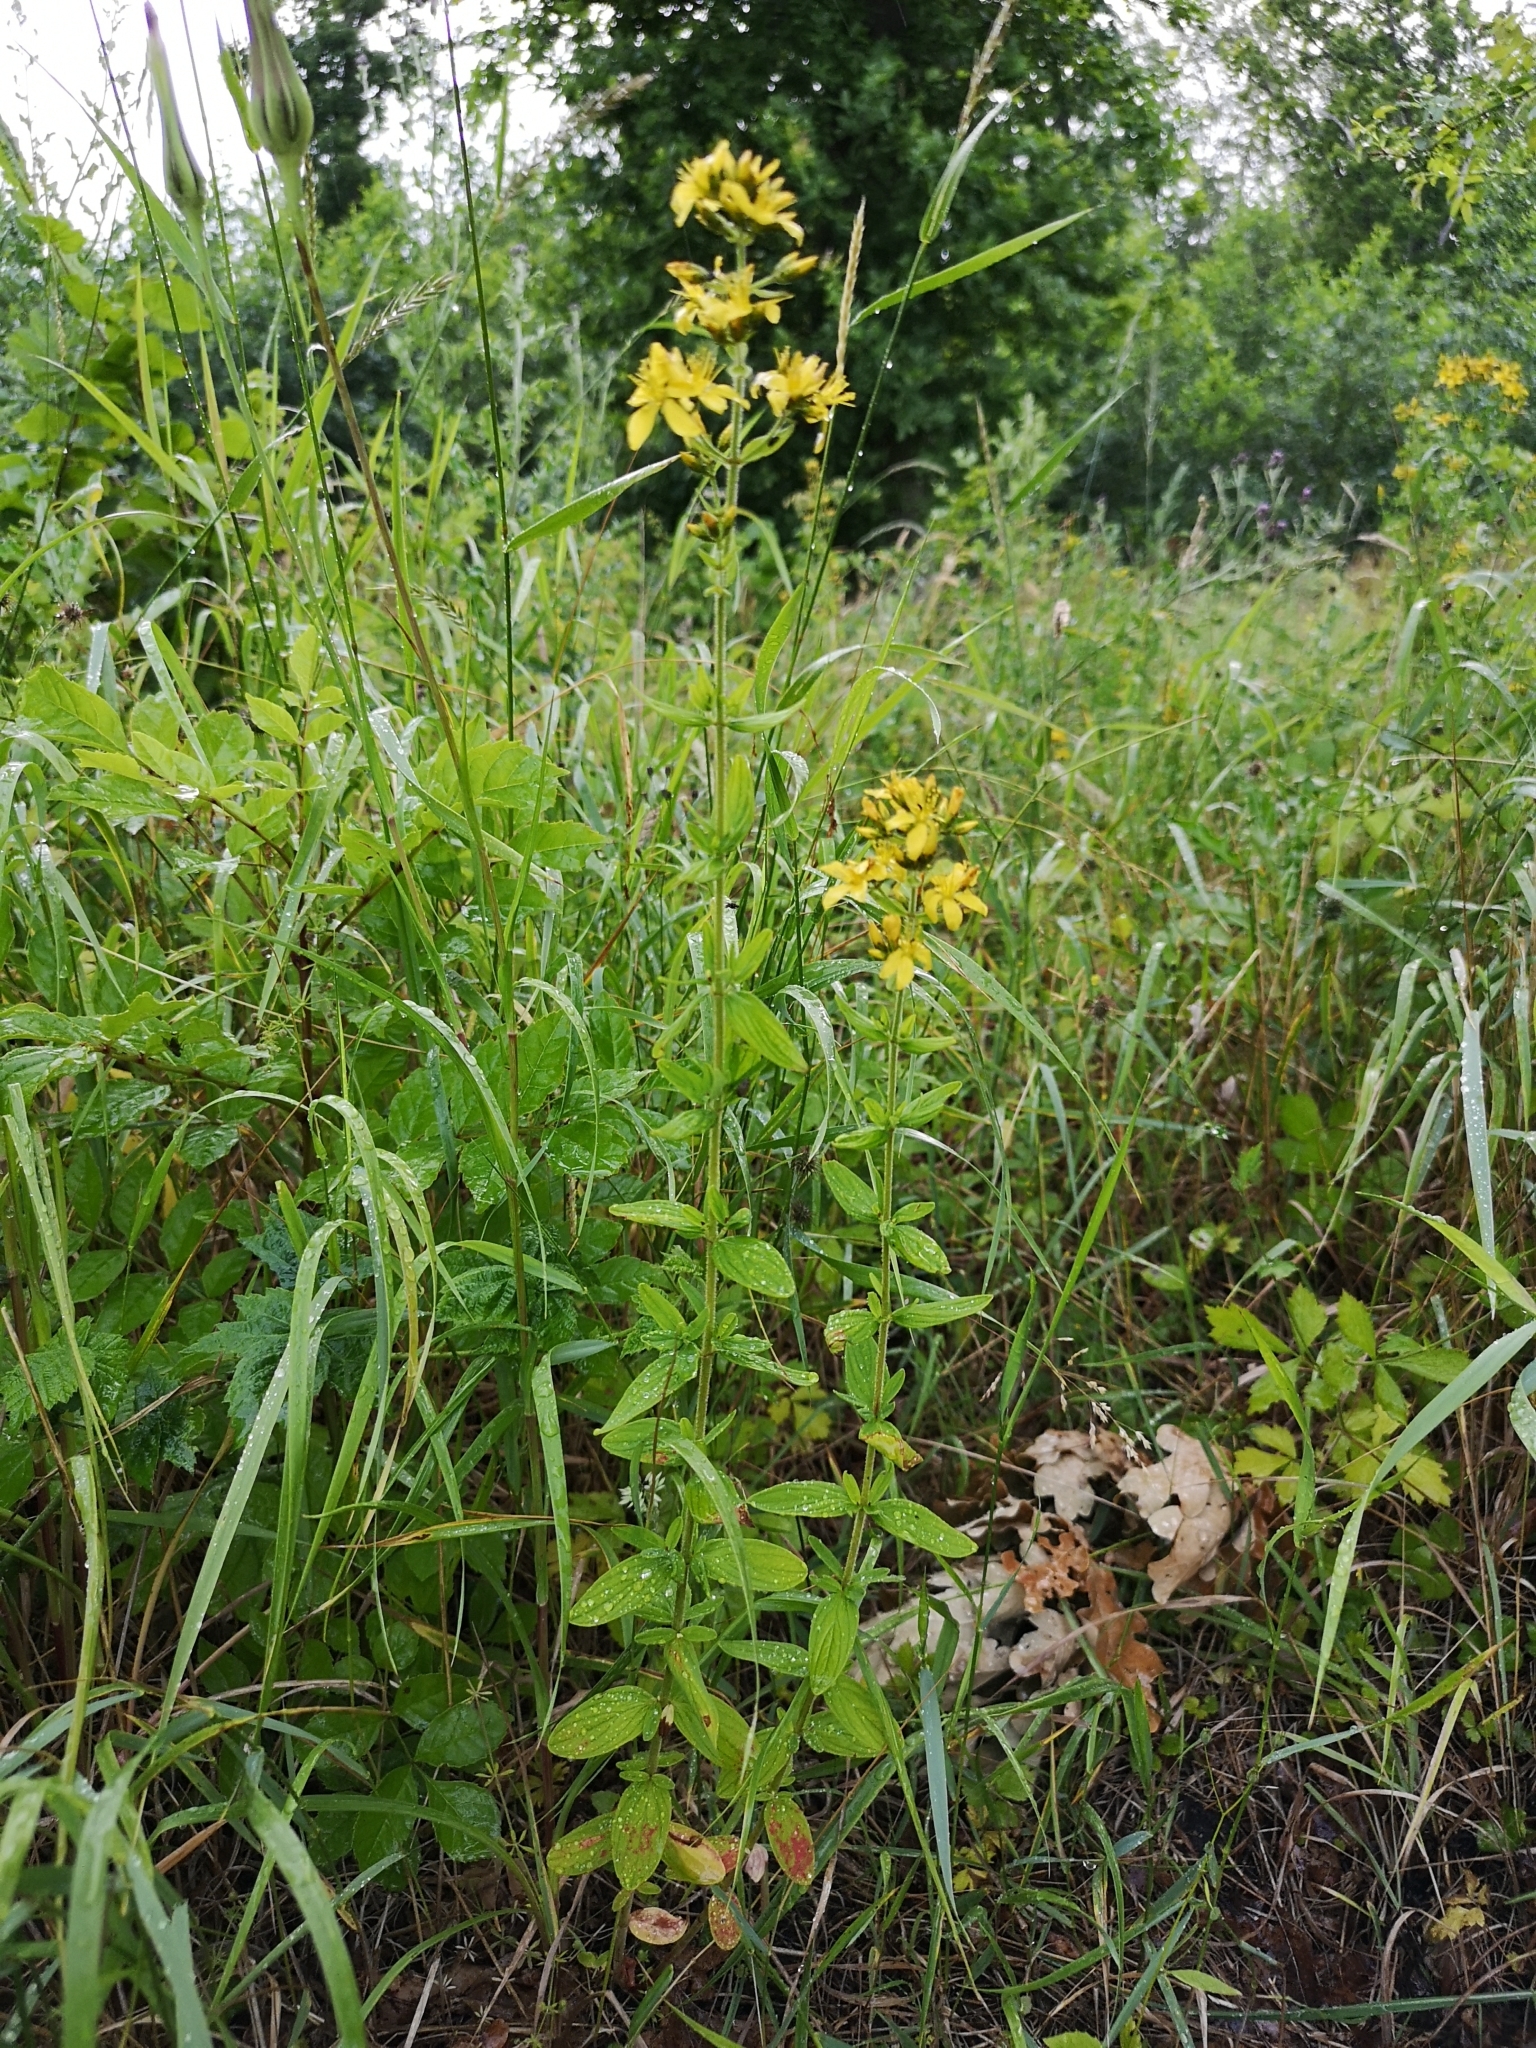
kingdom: Plantae
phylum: Tracheophyta
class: Magnoliopsida
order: Malpighiales
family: Hypericaceae
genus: Hypericum
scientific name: Hypericum hirsutum
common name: Hairy st. john's-wort
